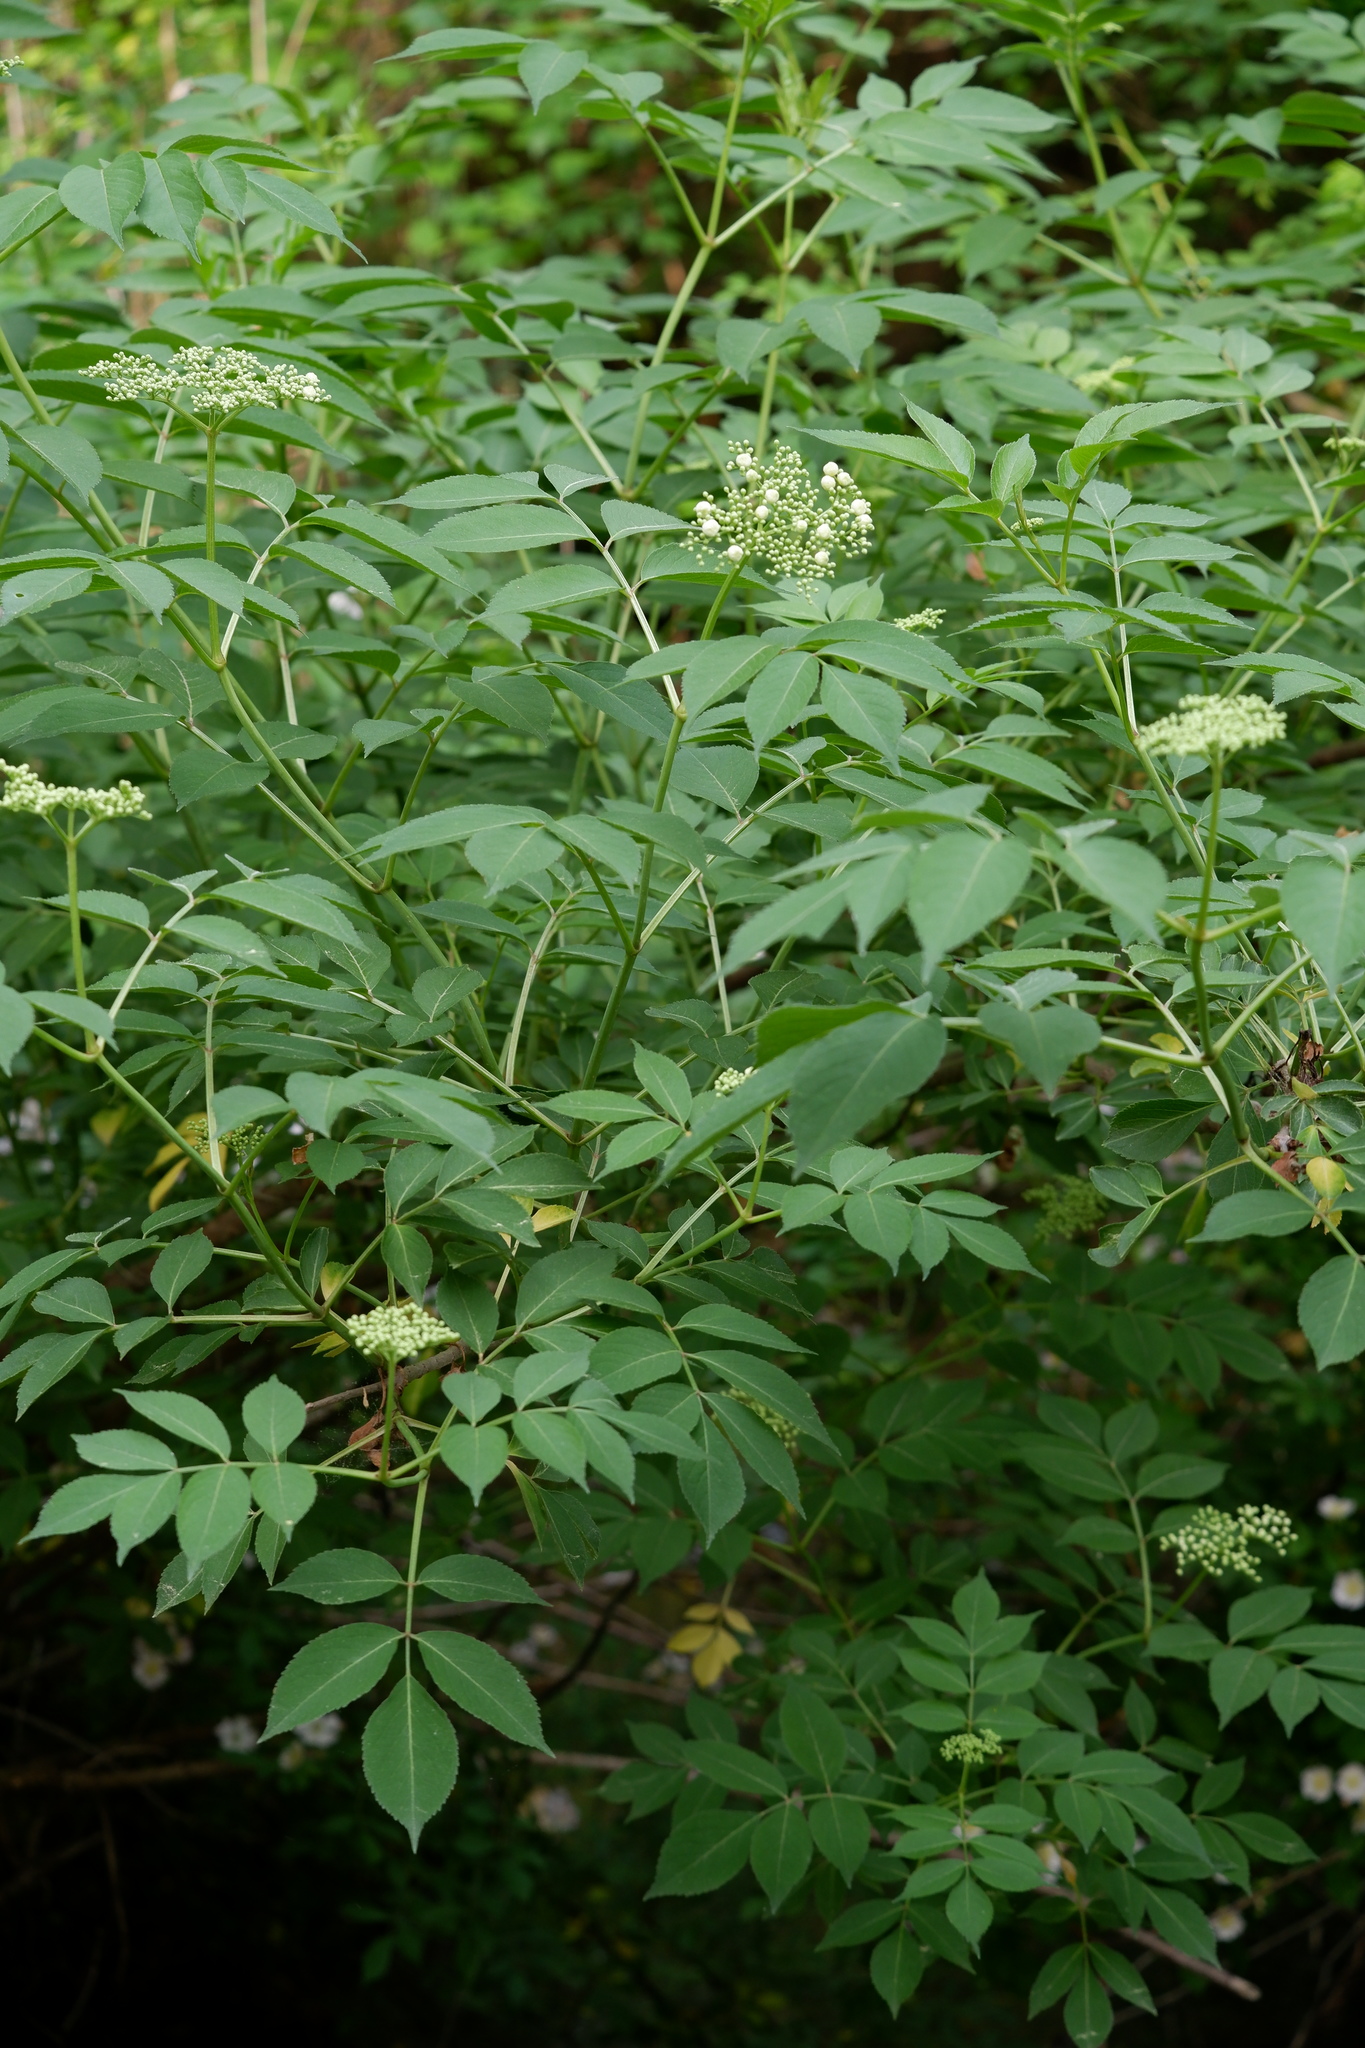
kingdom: Plantae
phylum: Tracheophyta
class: Magnoliopsida
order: Dipsacales
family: Viburnaceae
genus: Sambucus
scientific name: Sambucus canadensis
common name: American elder
